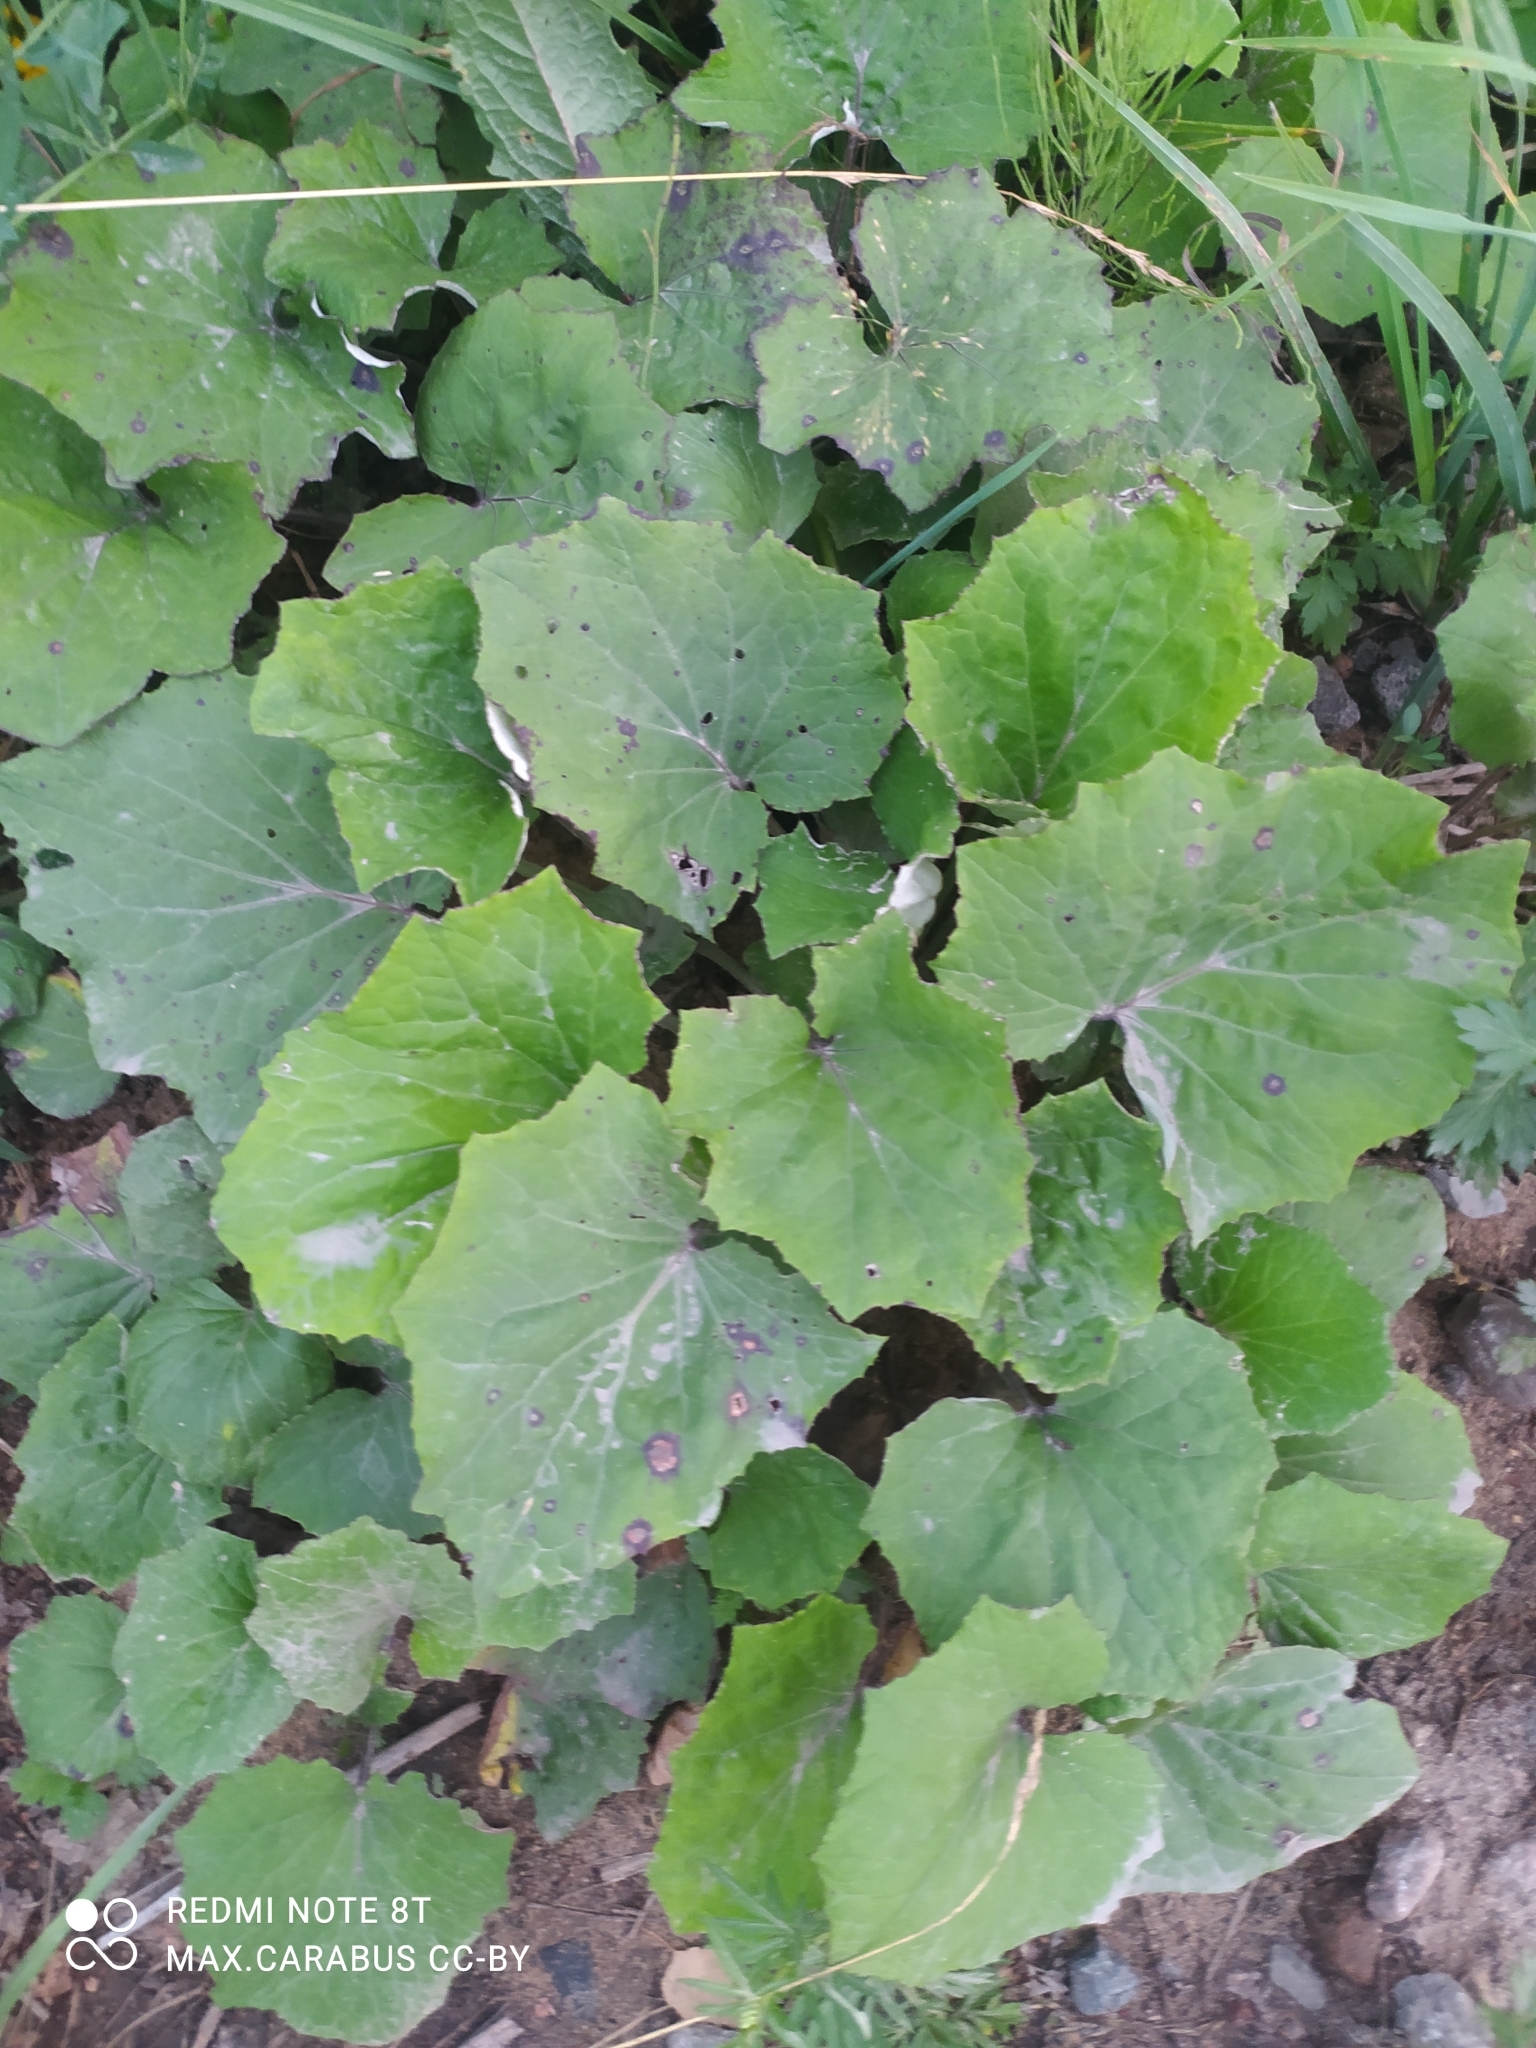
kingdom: Plantae
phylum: Tracheophyta
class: Magnoliopsida
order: Asterales
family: Asteraceae
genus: Tussilago
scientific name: Tussilago farfara
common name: Coltsfoot
